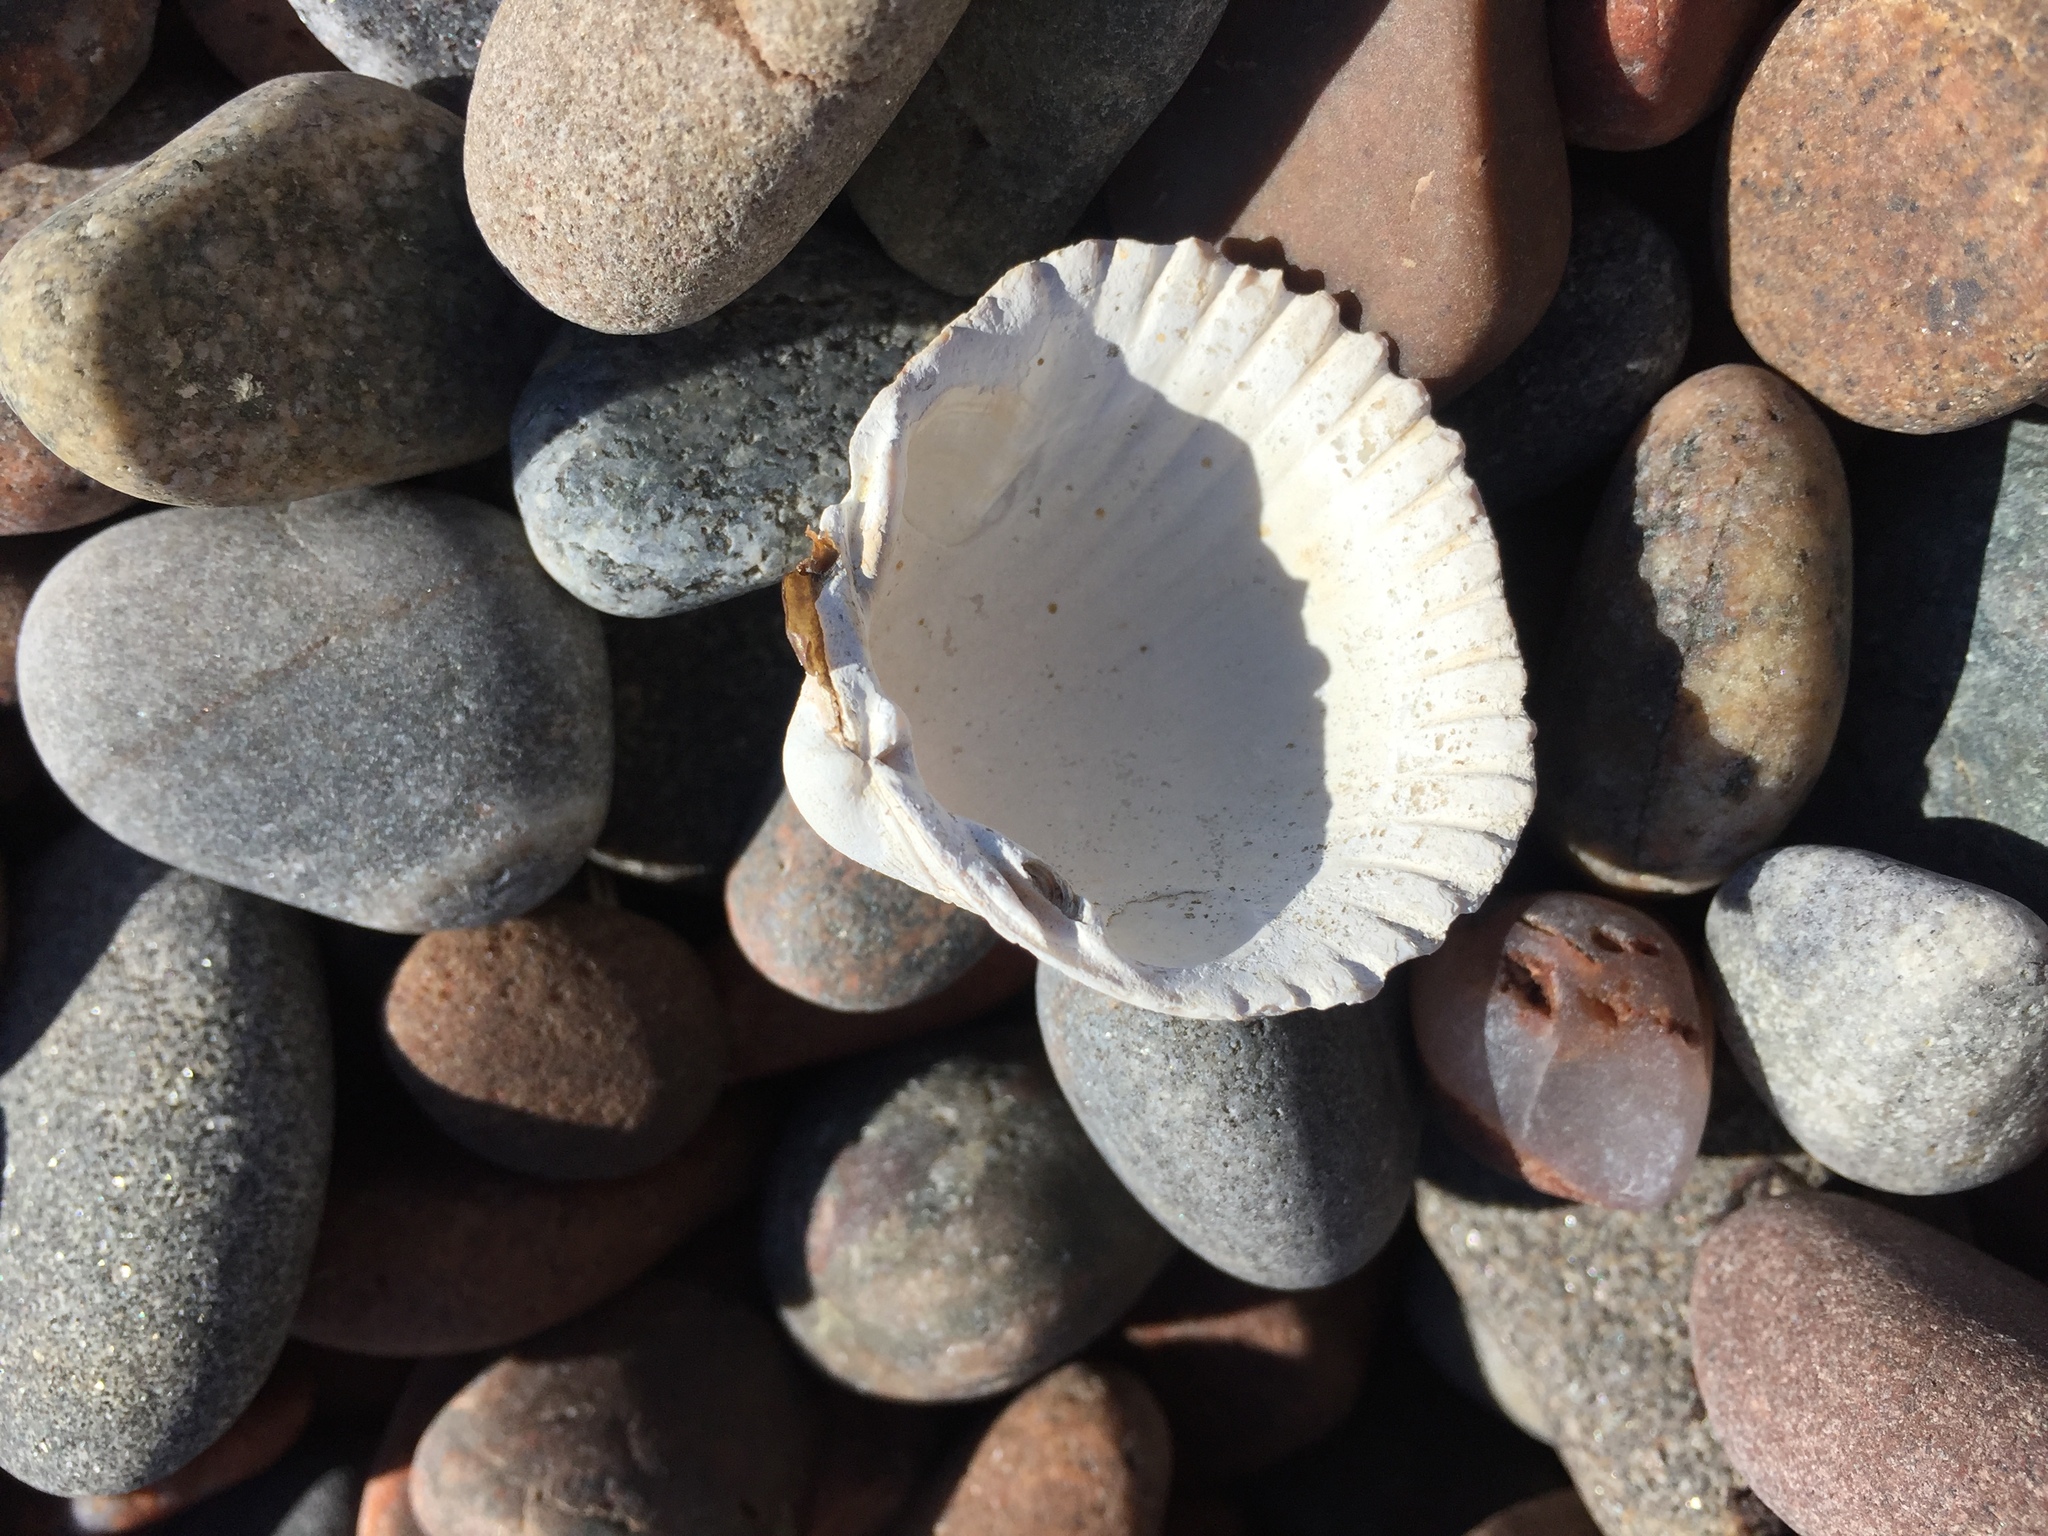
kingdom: Animalia
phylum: Mollusca
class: Bivalvia
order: Cardiida
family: Cardiidae
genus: Cerastoderma
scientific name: Cerastoderma edule
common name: Common cockle
